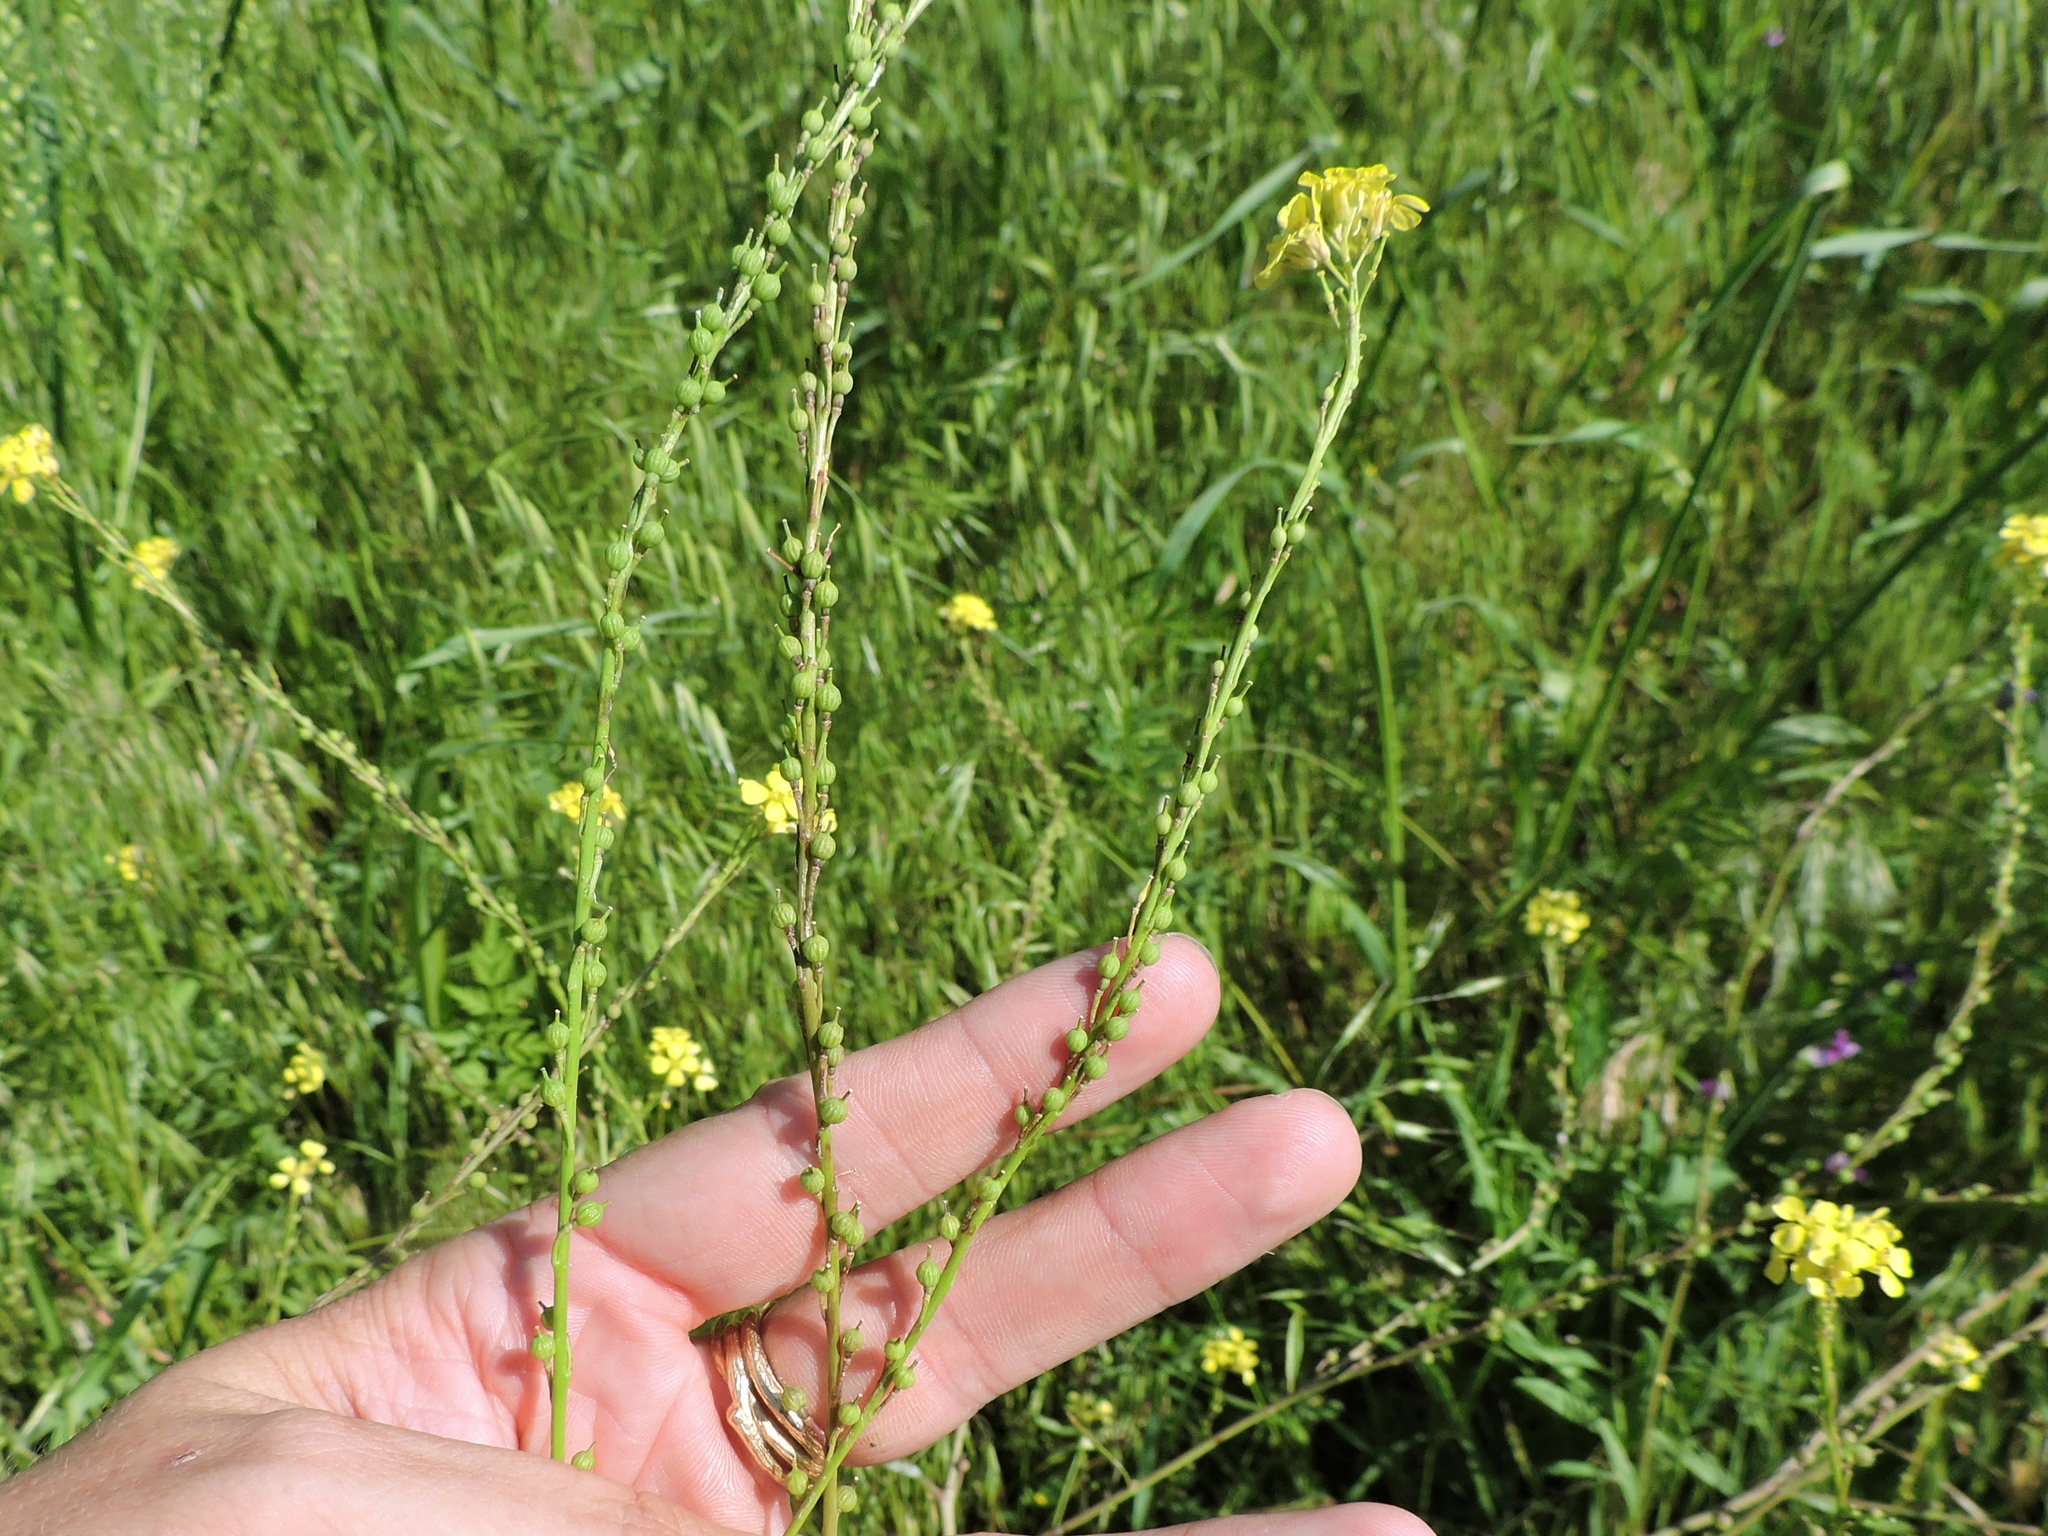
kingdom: Plantae
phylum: Tracheophyta
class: Magnoliopsida
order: Brassicales
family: Brassicaceae
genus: Rapistrum
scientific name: Rapistrum rugosum
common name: Annual bastardcabbage
